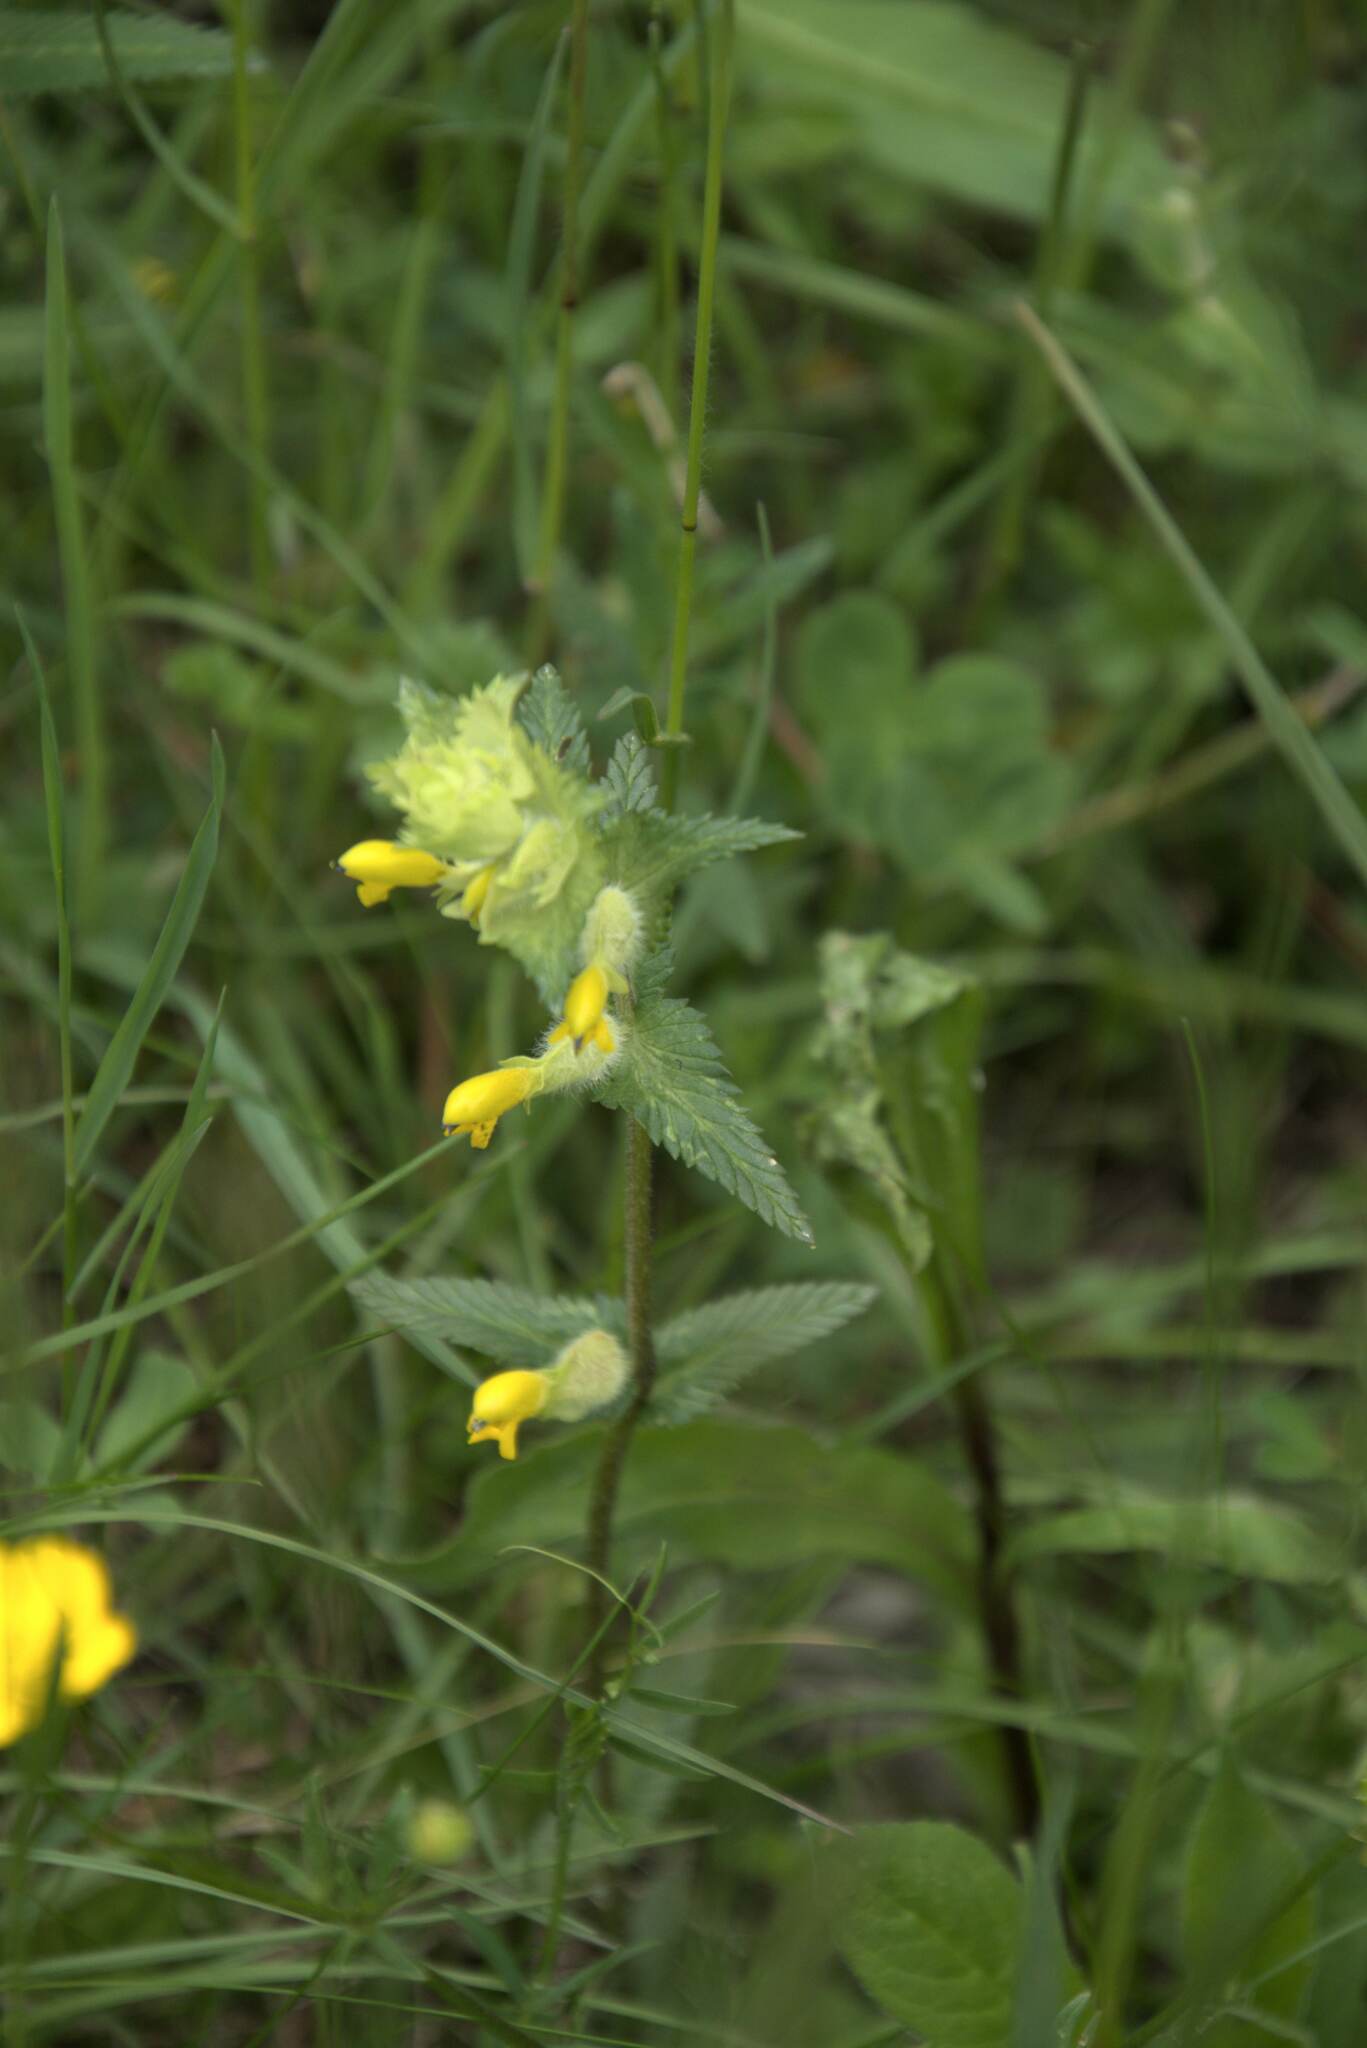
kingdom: Plantae
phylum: Tracheophyta
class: Magnoliopsida
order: Lamiales
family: Orobanchaceae
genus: Rhinanthus
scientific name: Rhinanthus alectorolophus
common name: Greater yellow-rattle
